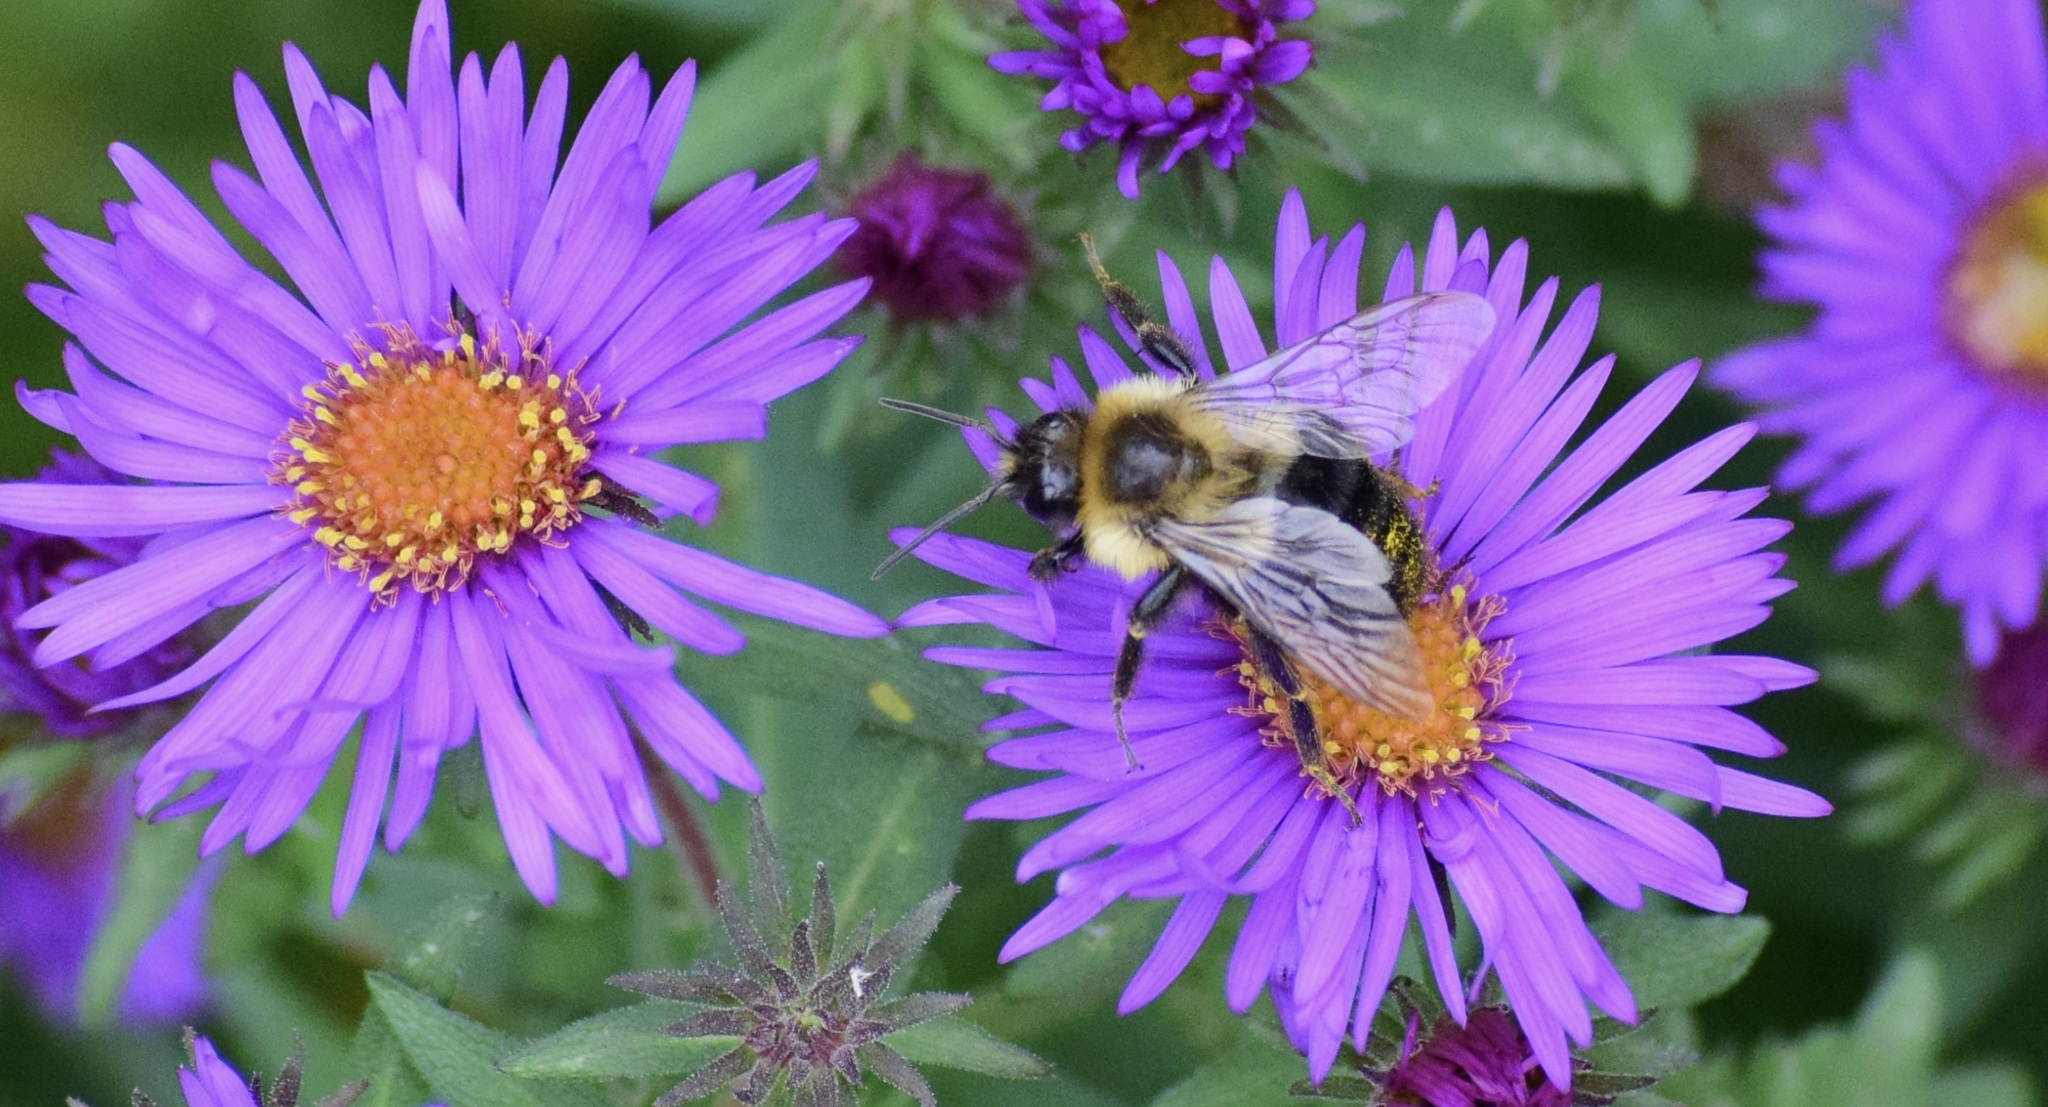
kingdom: Animalia
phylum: Arthropoda
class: Insecta
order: Hymenoptera
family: Apidae
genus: Bombus
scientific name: Bombus impatiens
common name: Common eastern bumble bee
